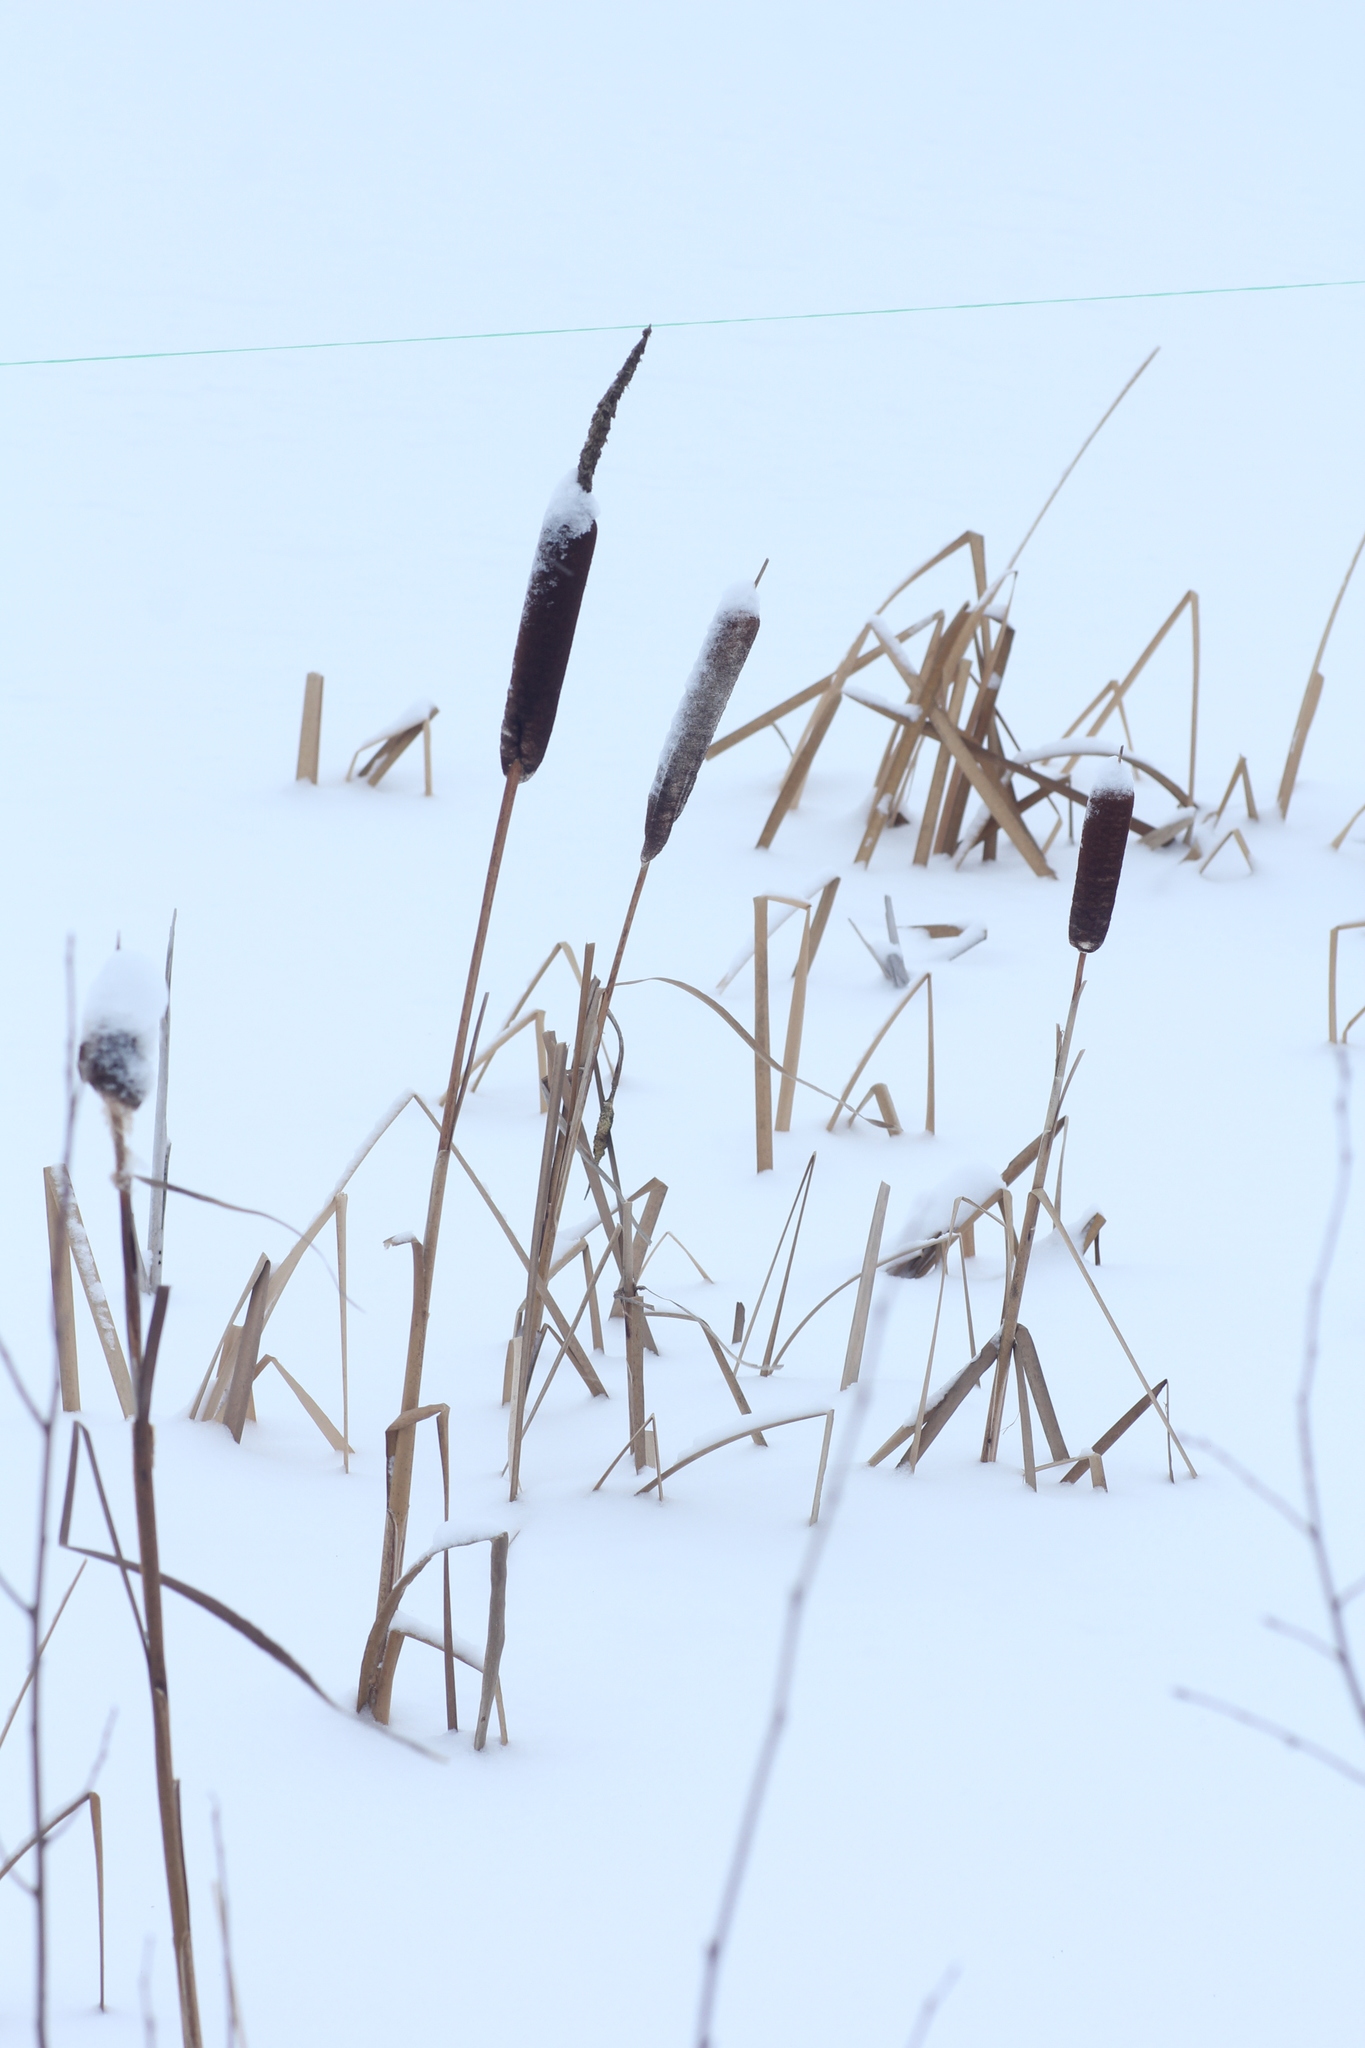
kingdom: Plantae
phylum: Tracheophyta
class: Liliopsida
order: Poales
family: Typhaceae
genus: Typha
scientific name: Typha latifolia
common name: Broadleaf cattail
